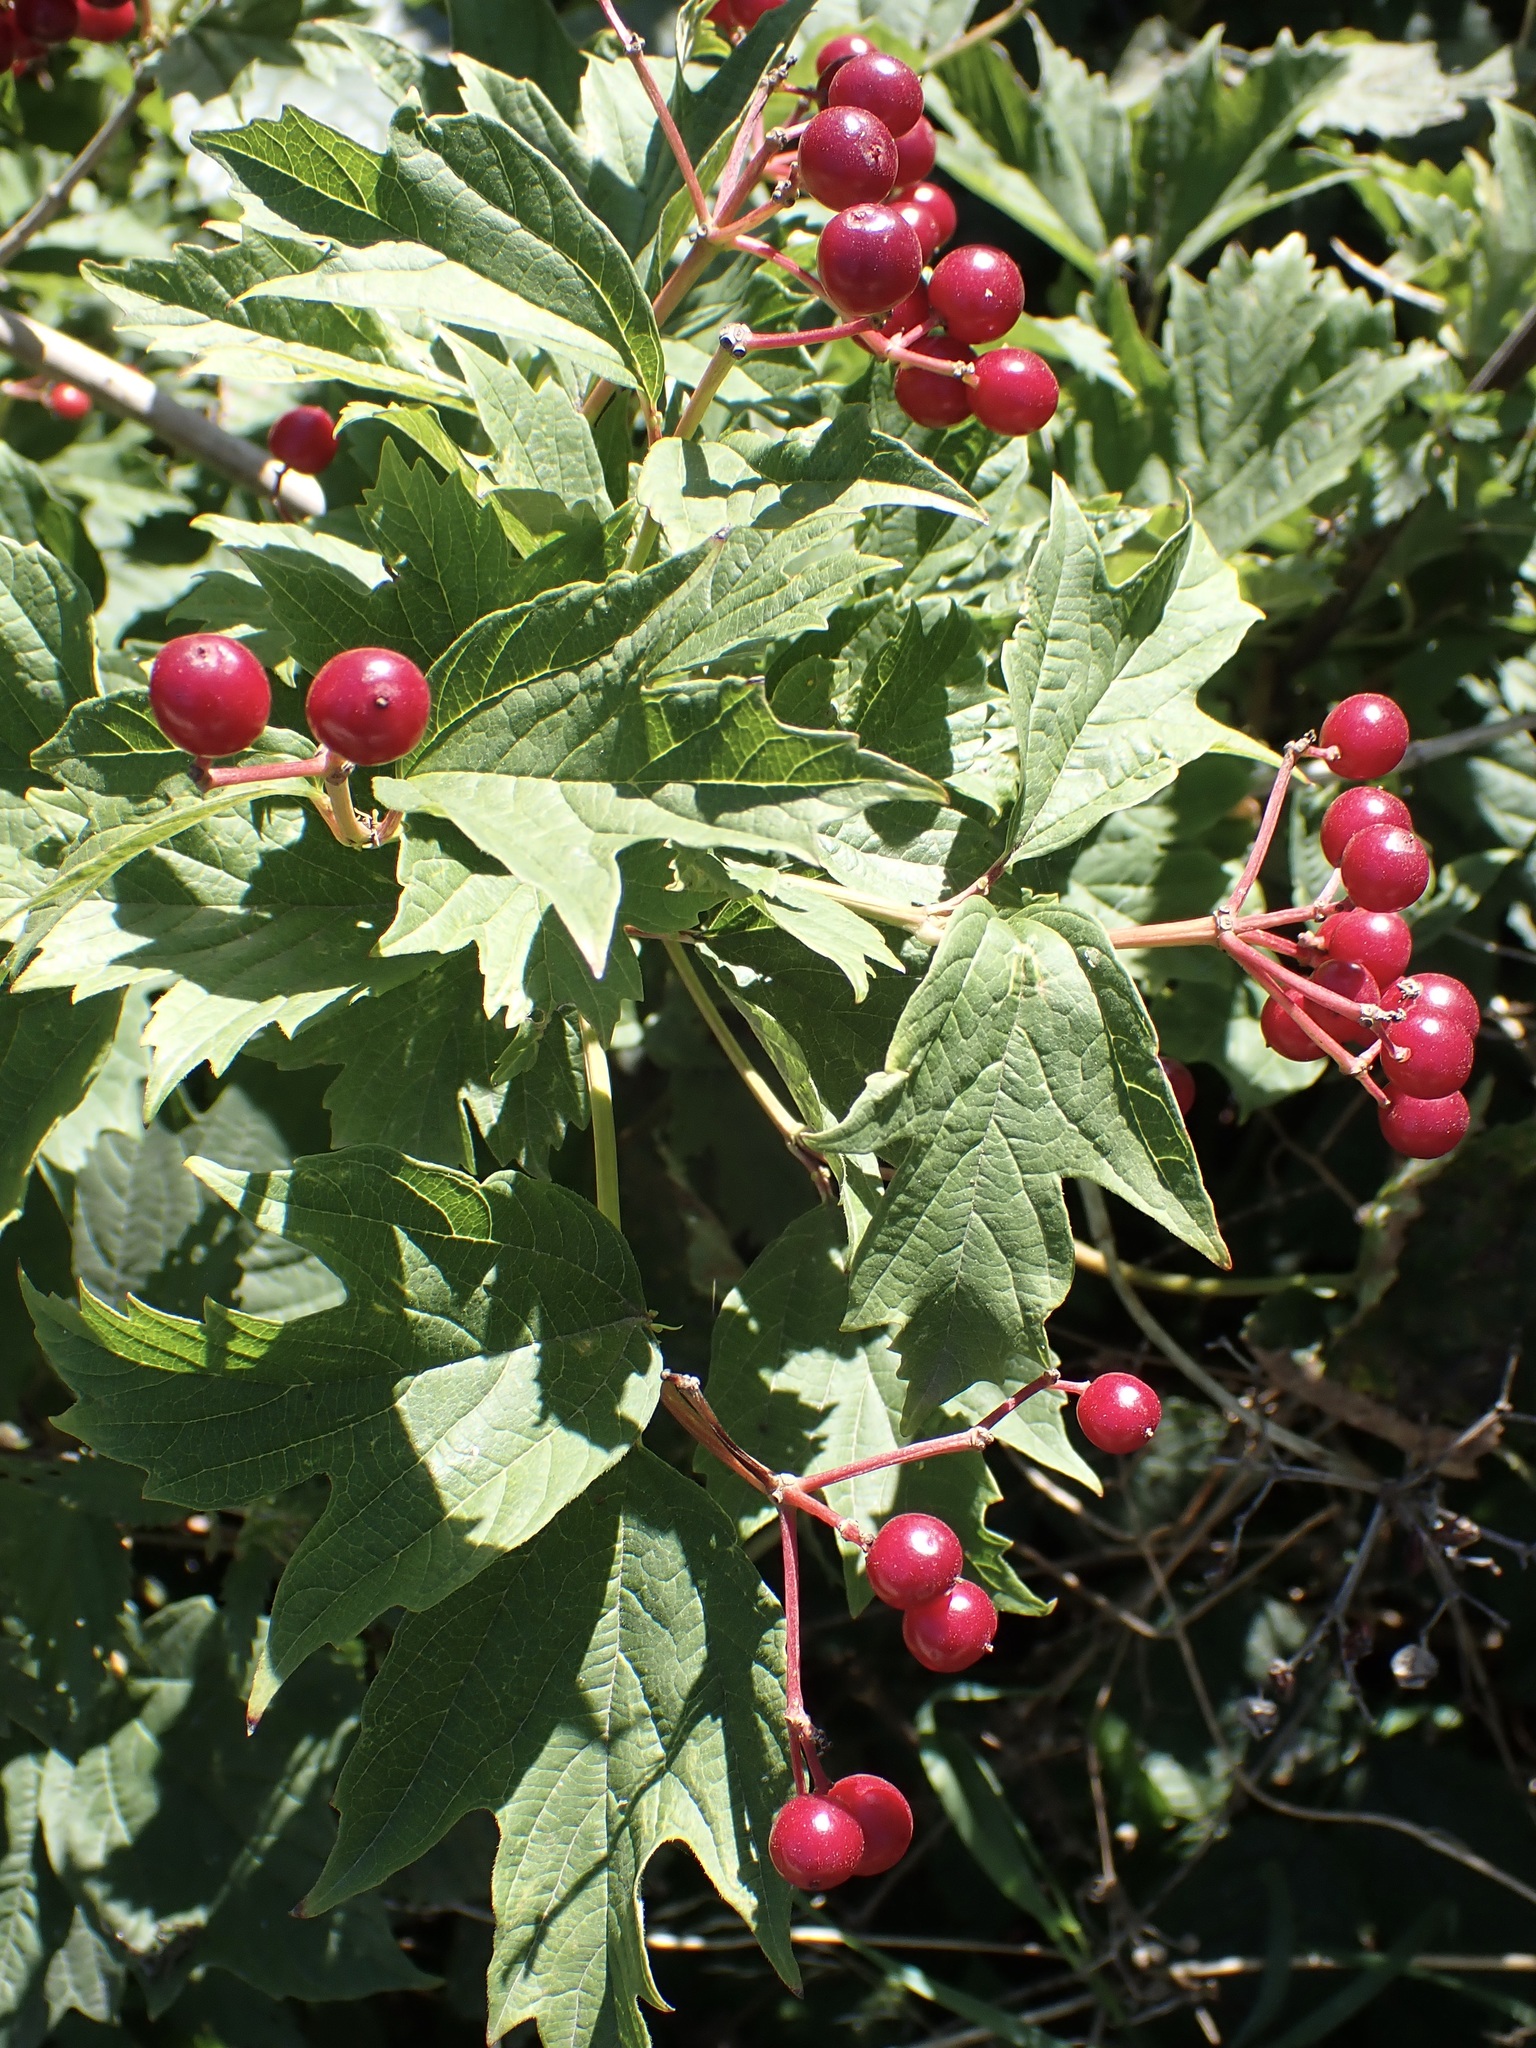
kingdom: Plantae
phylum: Tracheophyta
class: Magnoliopsida
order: Dipsacales
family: Viburnaceae
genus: Viburnum
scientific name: Viburnum opulus
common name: Guelder-rose
